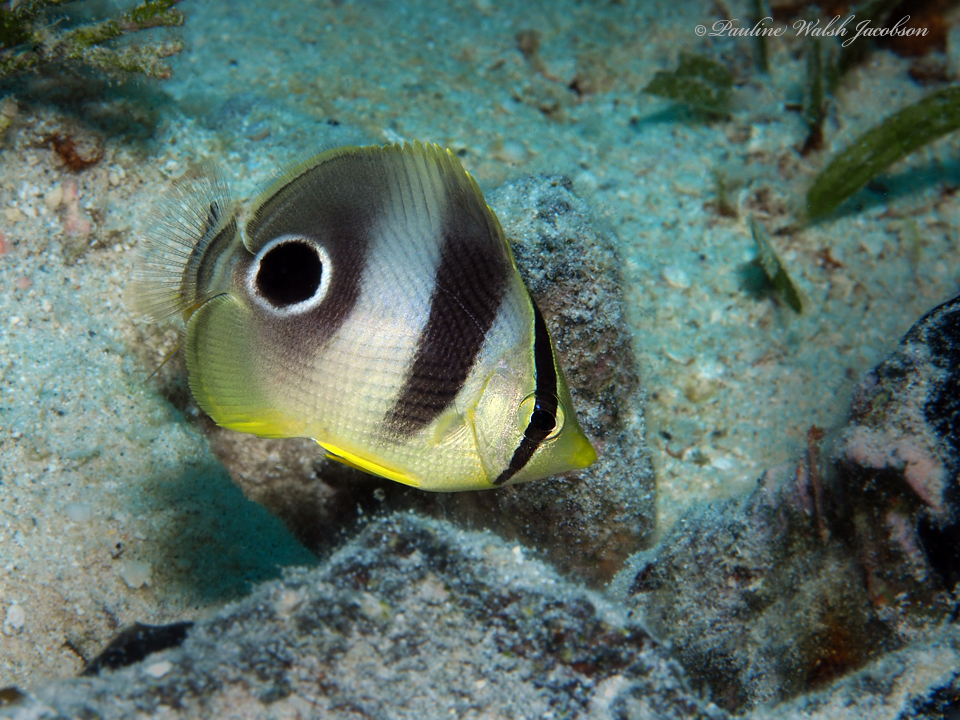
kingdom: Animalia
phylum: Chordata
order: Perciformes
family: Chaetodontidae
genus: Chaetodon
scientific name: Chaetodon capistratus
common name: Kete
